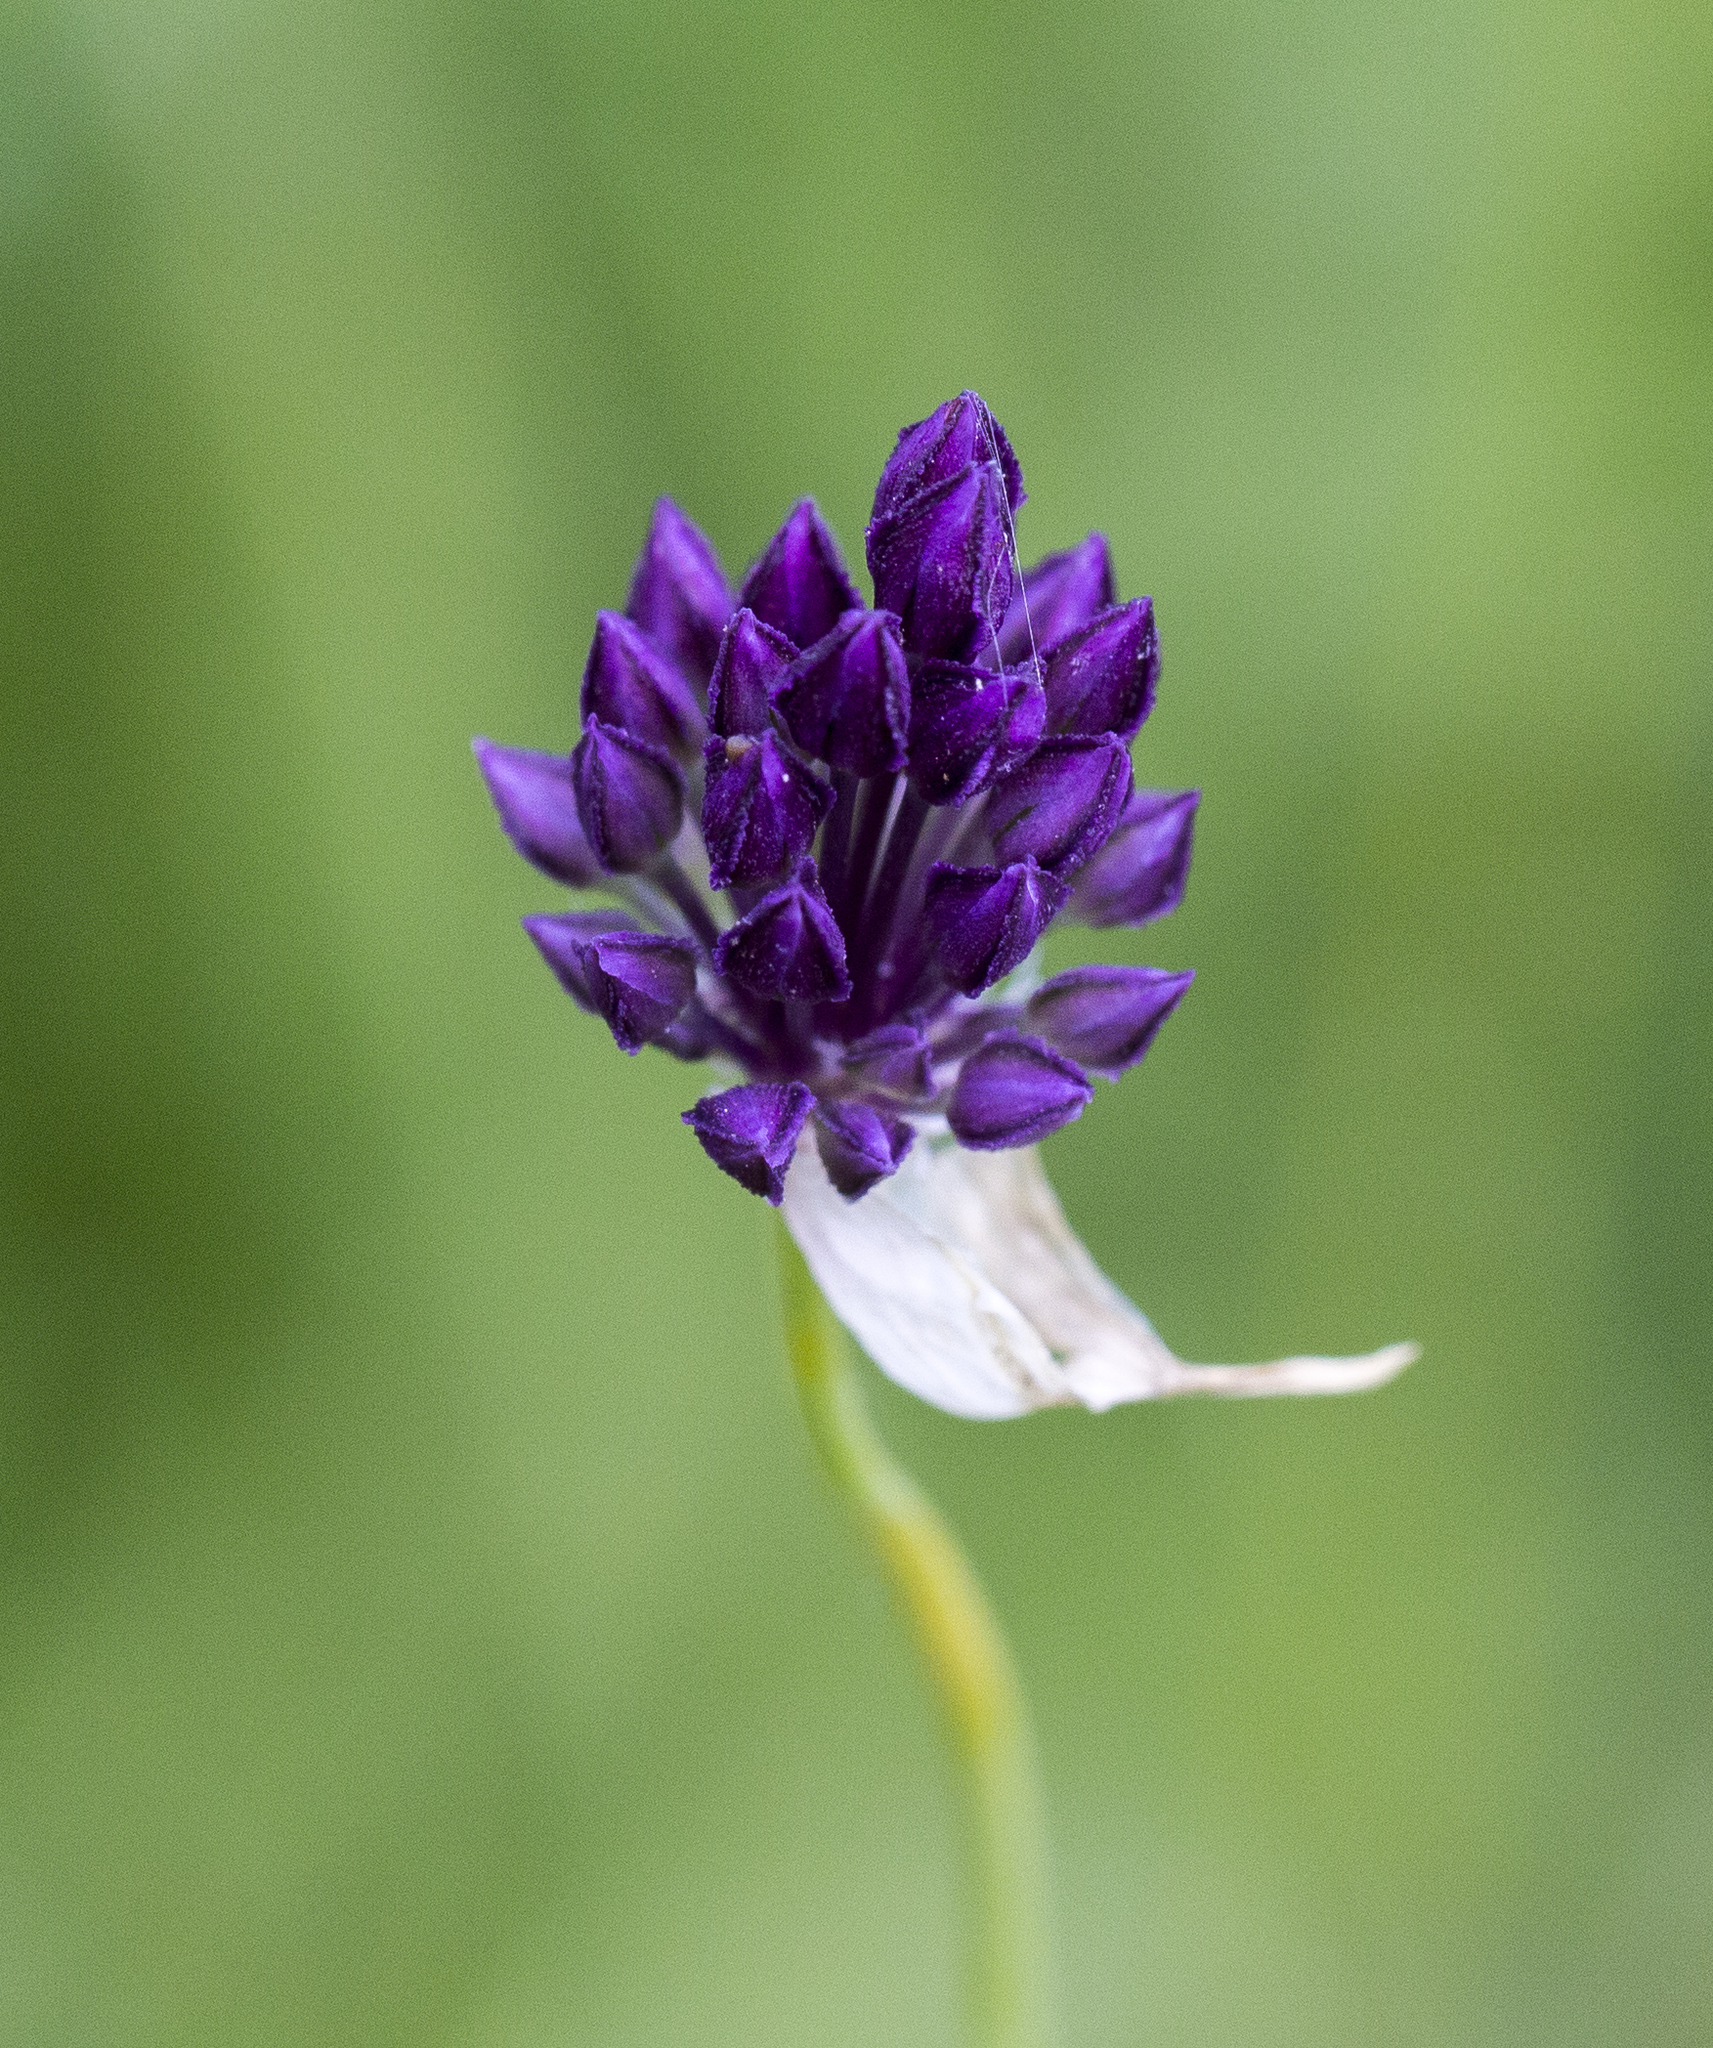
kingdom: Plantae
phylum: Tracheophyta
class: Liliopsida
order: Asparagales
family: Amaryllidaceae
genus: Allium
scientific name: Allium rotundum
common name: Sand leek
